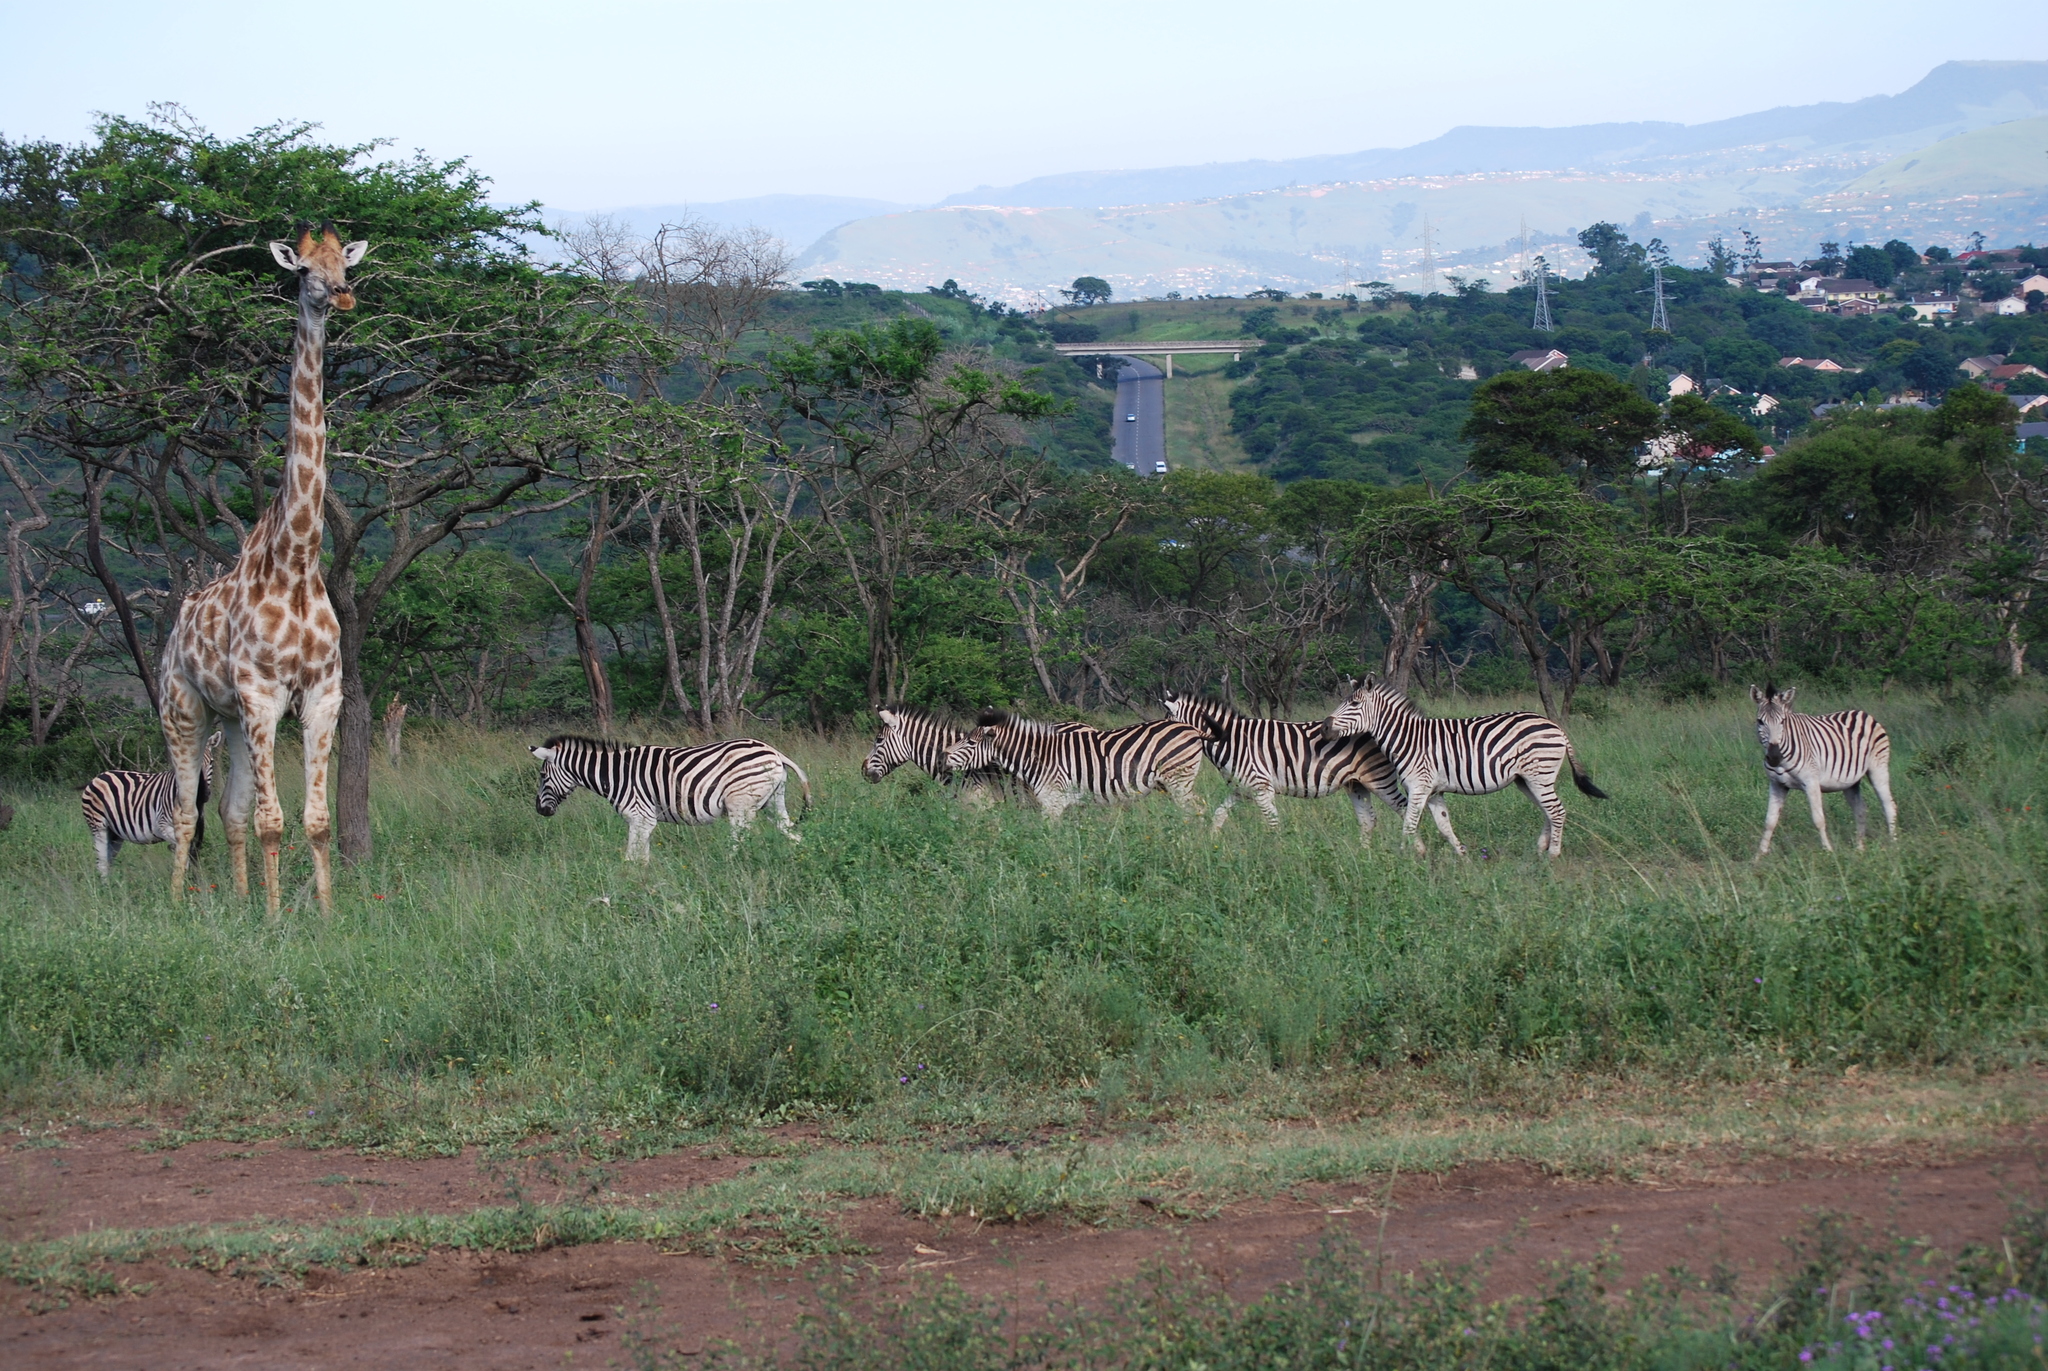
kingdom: Animalia
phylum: Chordata
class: Mammalia
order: Artiodactyla
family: Giraffidae
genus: Giraffa
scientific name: Giraffa giraffa
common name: Southern giraffe
